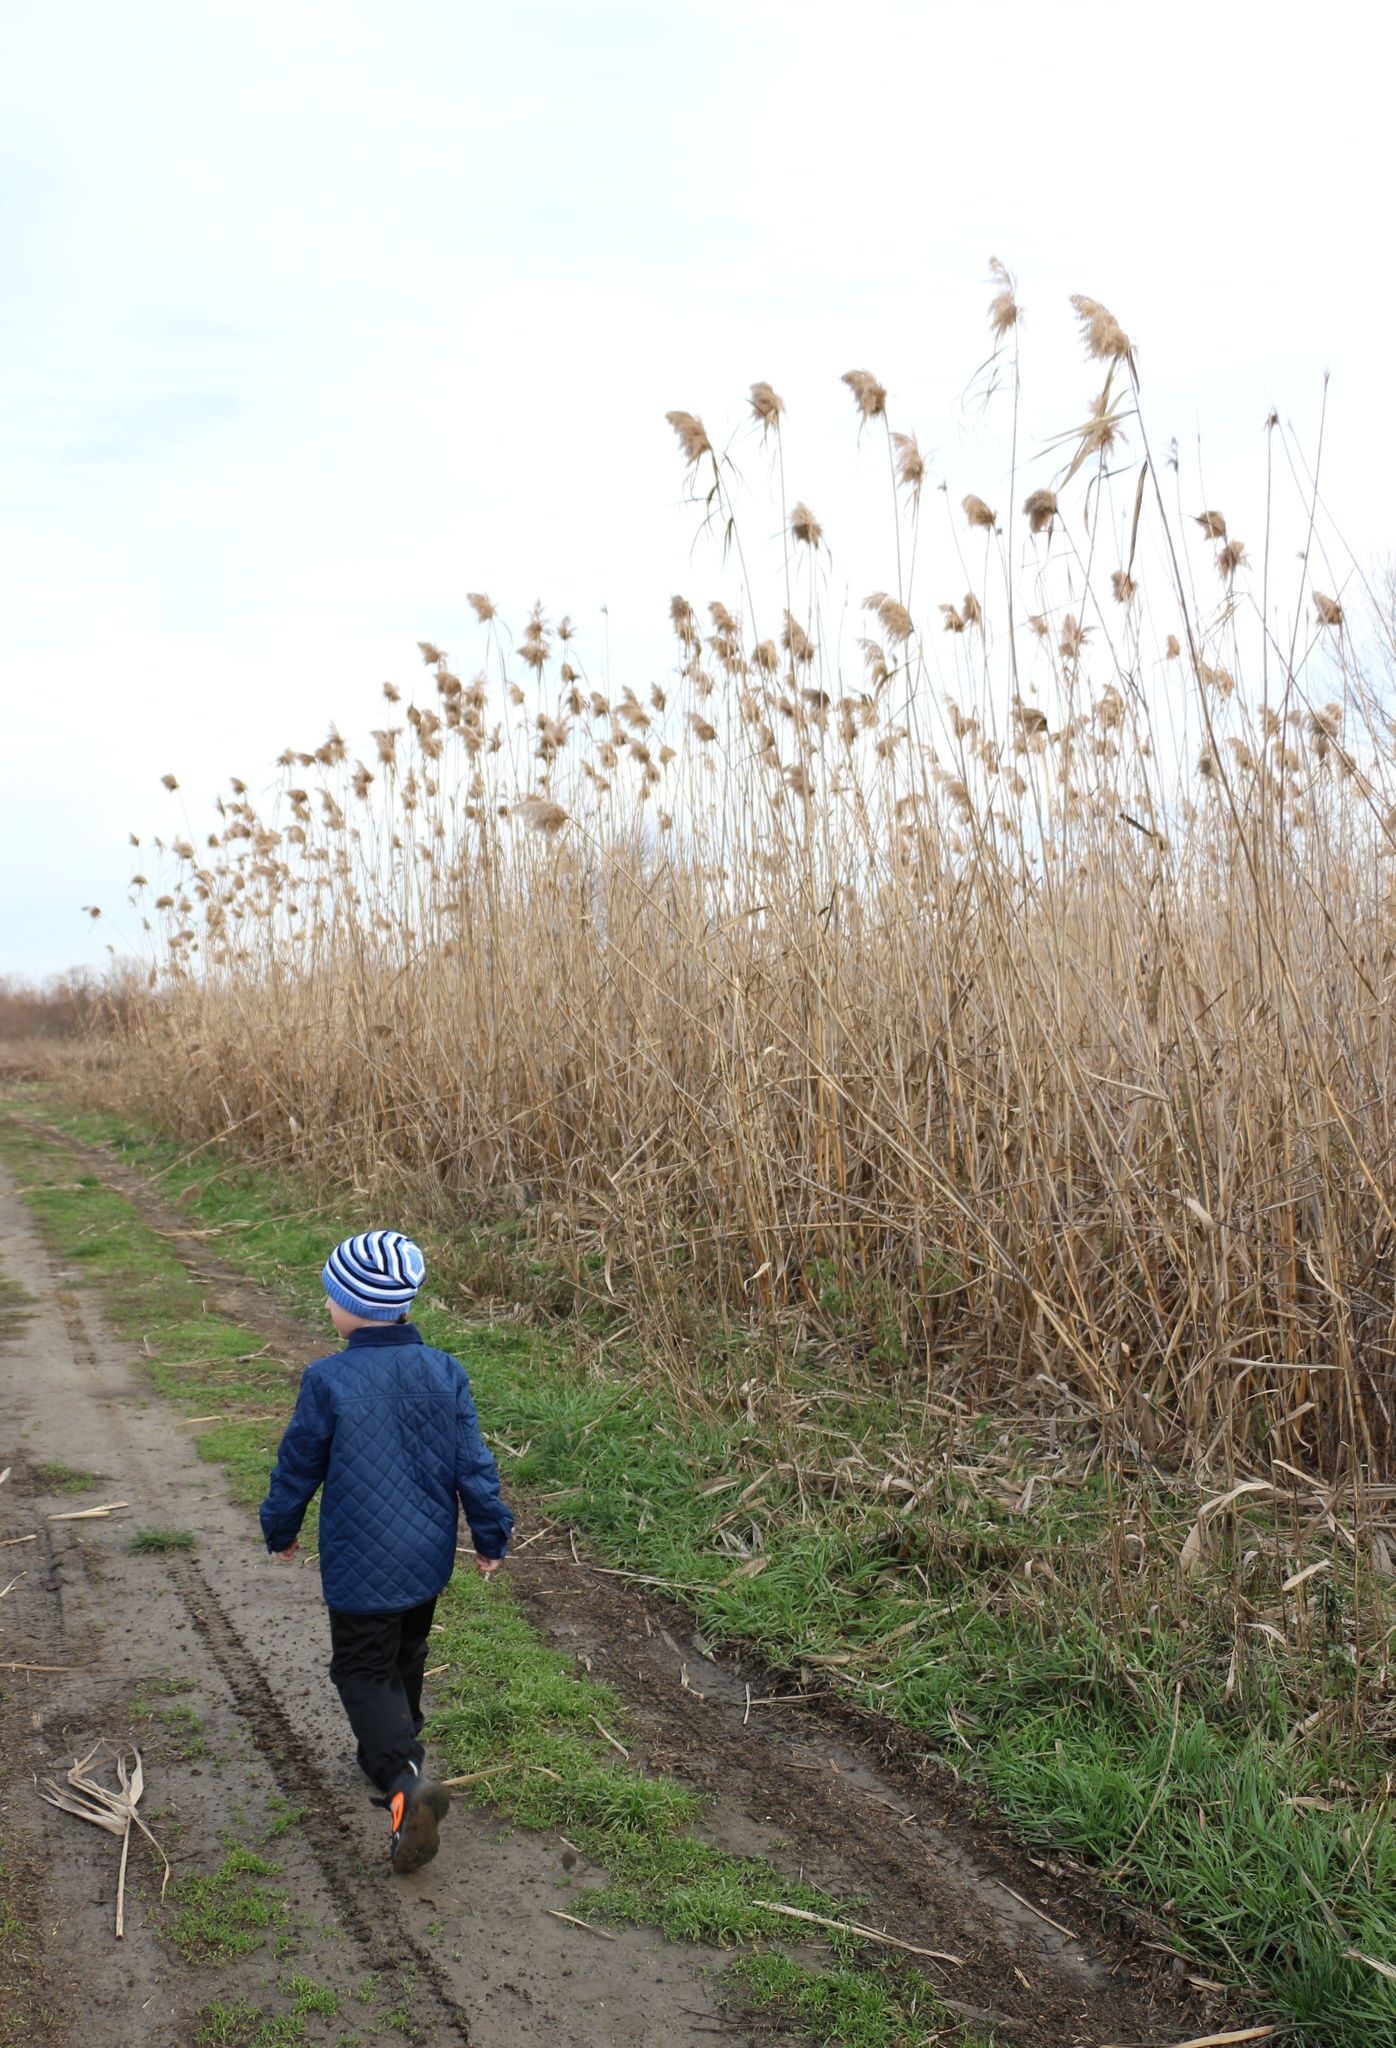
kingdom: Plantae
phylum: Tracheophyta
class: Liliopsida
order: Poales
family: Poaceae
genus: Phragmites
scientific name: Phragmites australis
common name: Common reed
